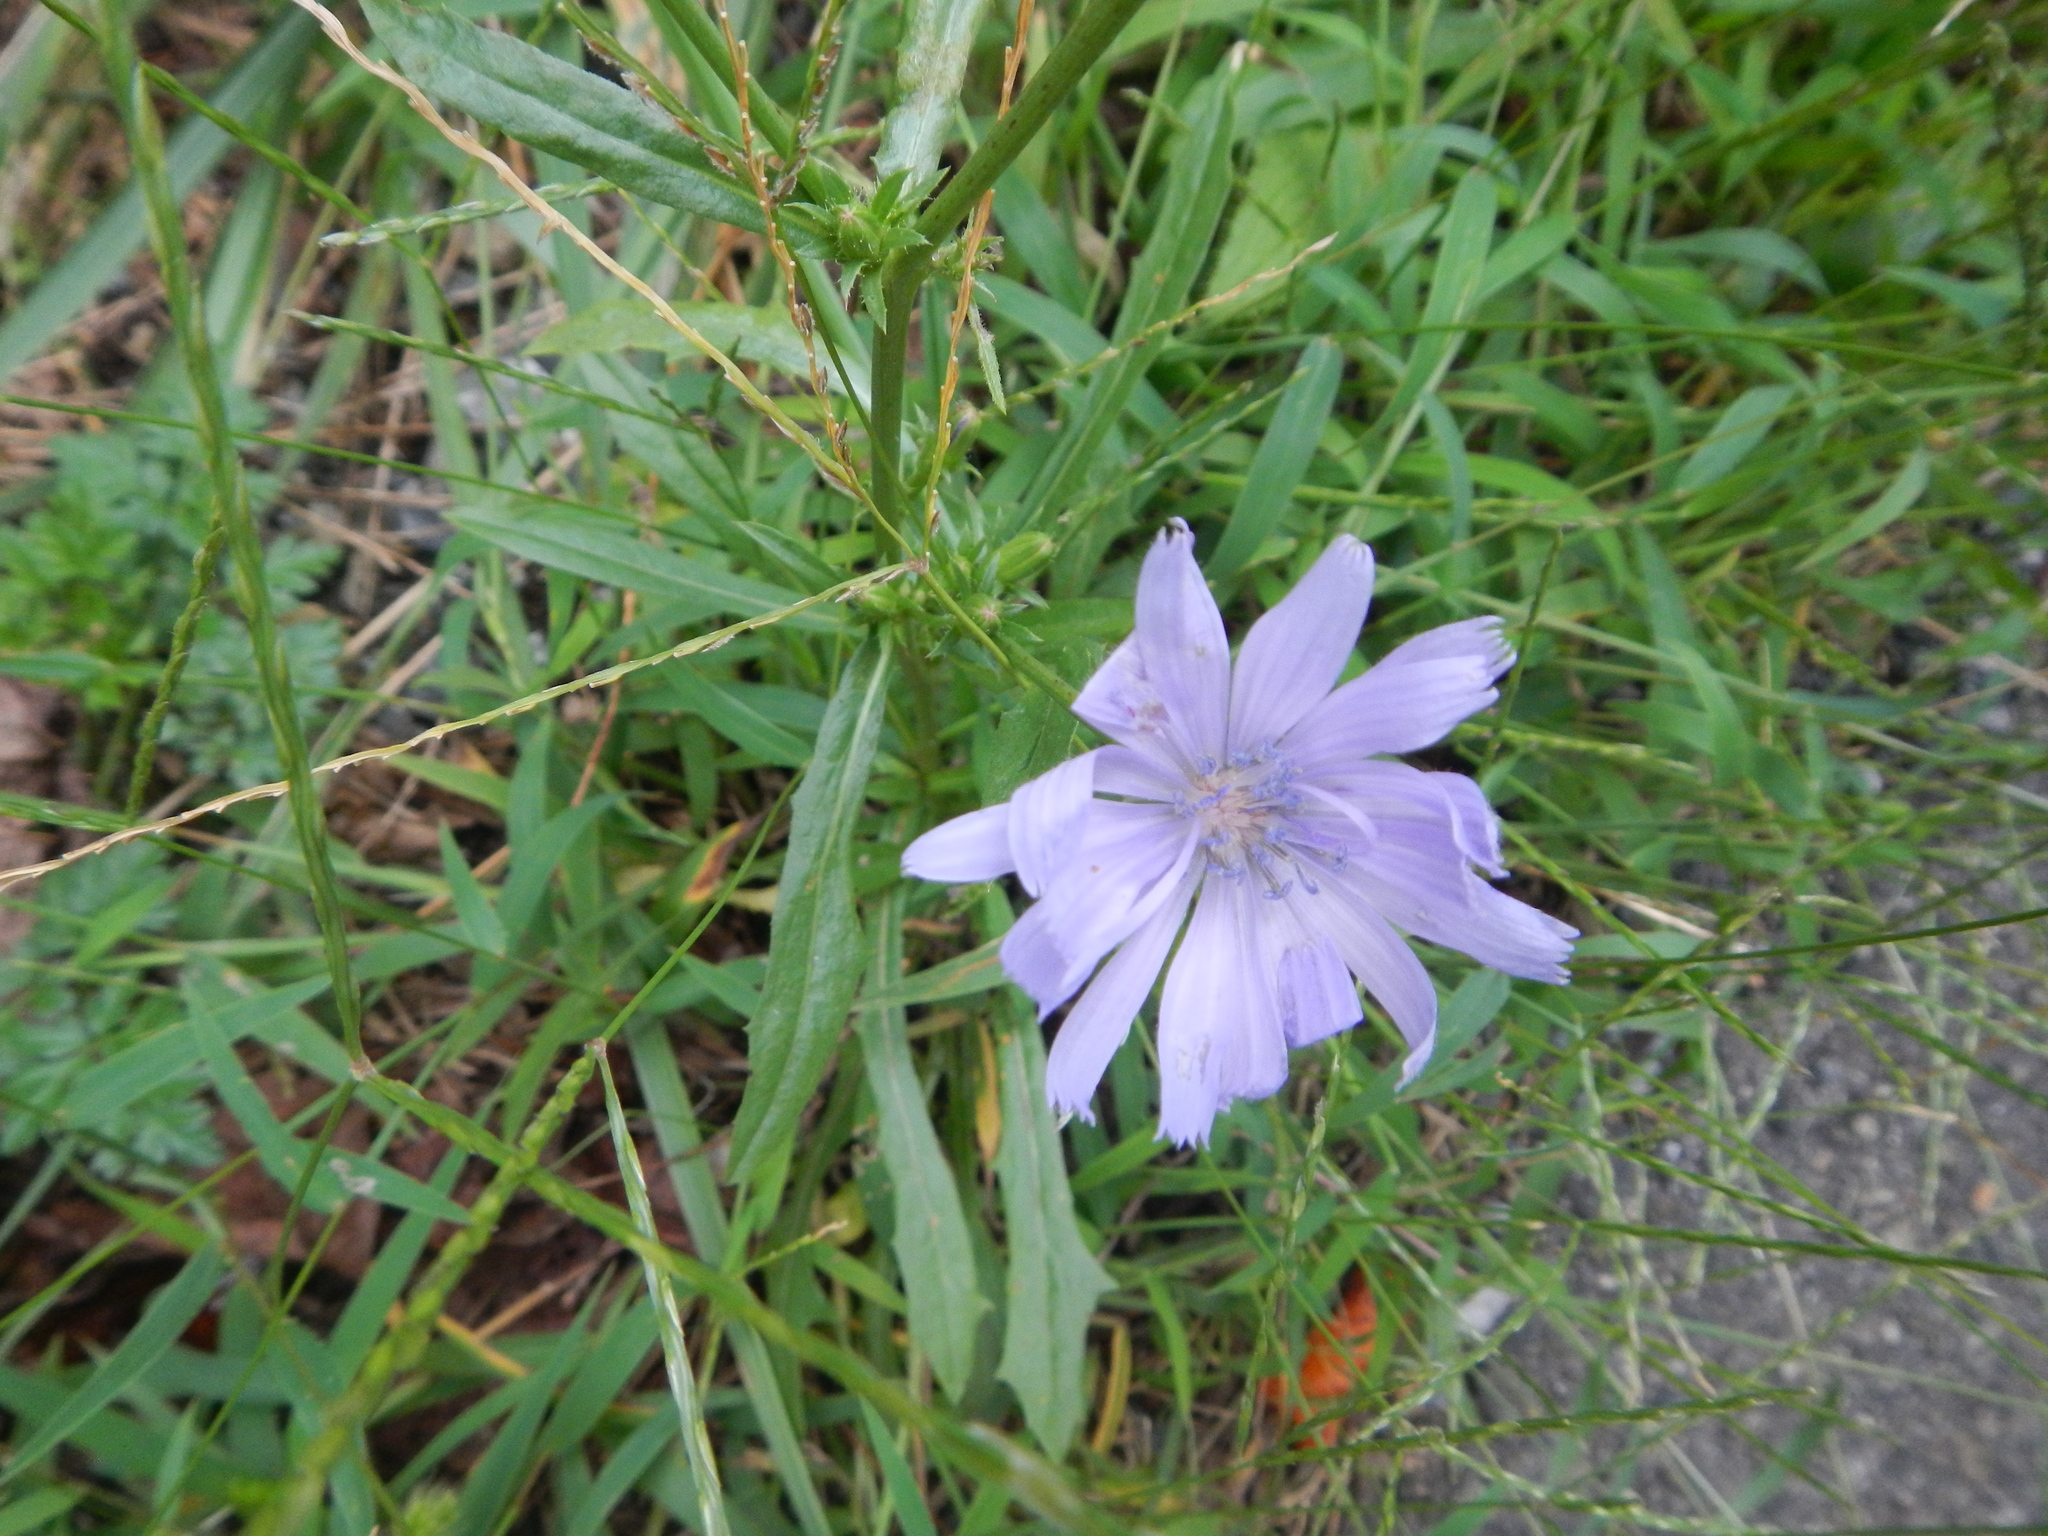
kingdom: Plantae
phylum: Tracheophyta
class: Magnoliopsida
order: Asterales
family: Asteraceae
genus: Cichorium
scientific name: Cichorium intybus
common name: Chicory
